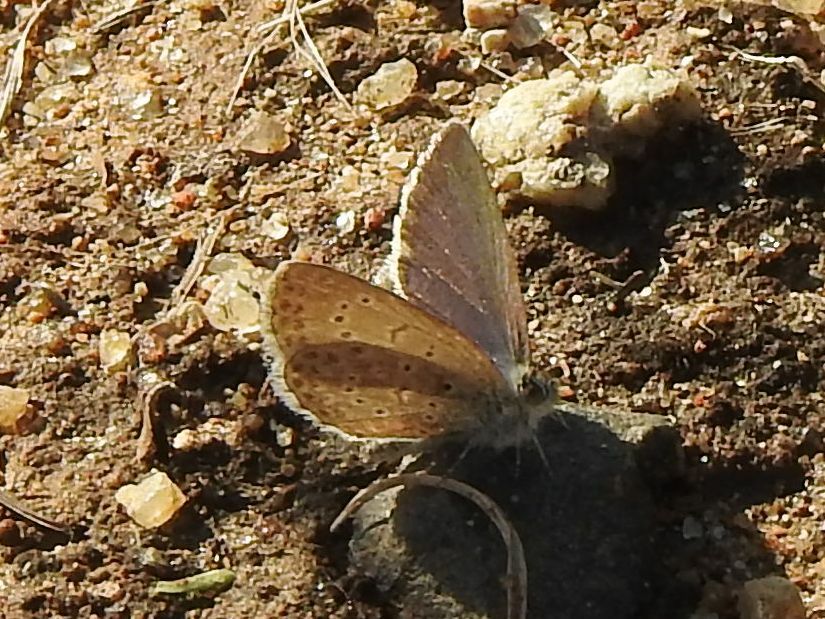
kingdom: Animalia
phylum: Arthropoda
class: Insecta
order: Lepidoptera
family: Lycaenidae
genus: Zizeeria
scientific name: Zizeeria knysna
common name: African grass blue
